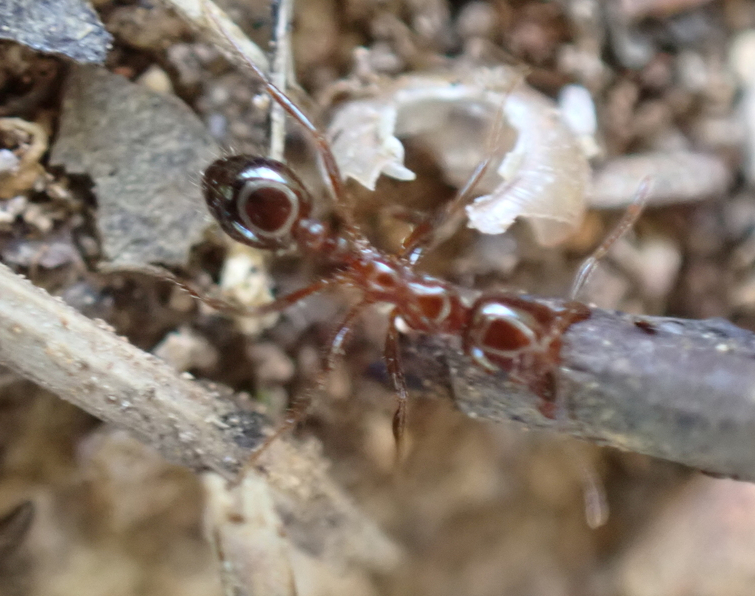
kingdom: Animalia
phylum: Arthropoda
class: Insecta
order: Hymenoptera
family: Formicidae
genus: Solenopsis
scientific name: Solenopsis
